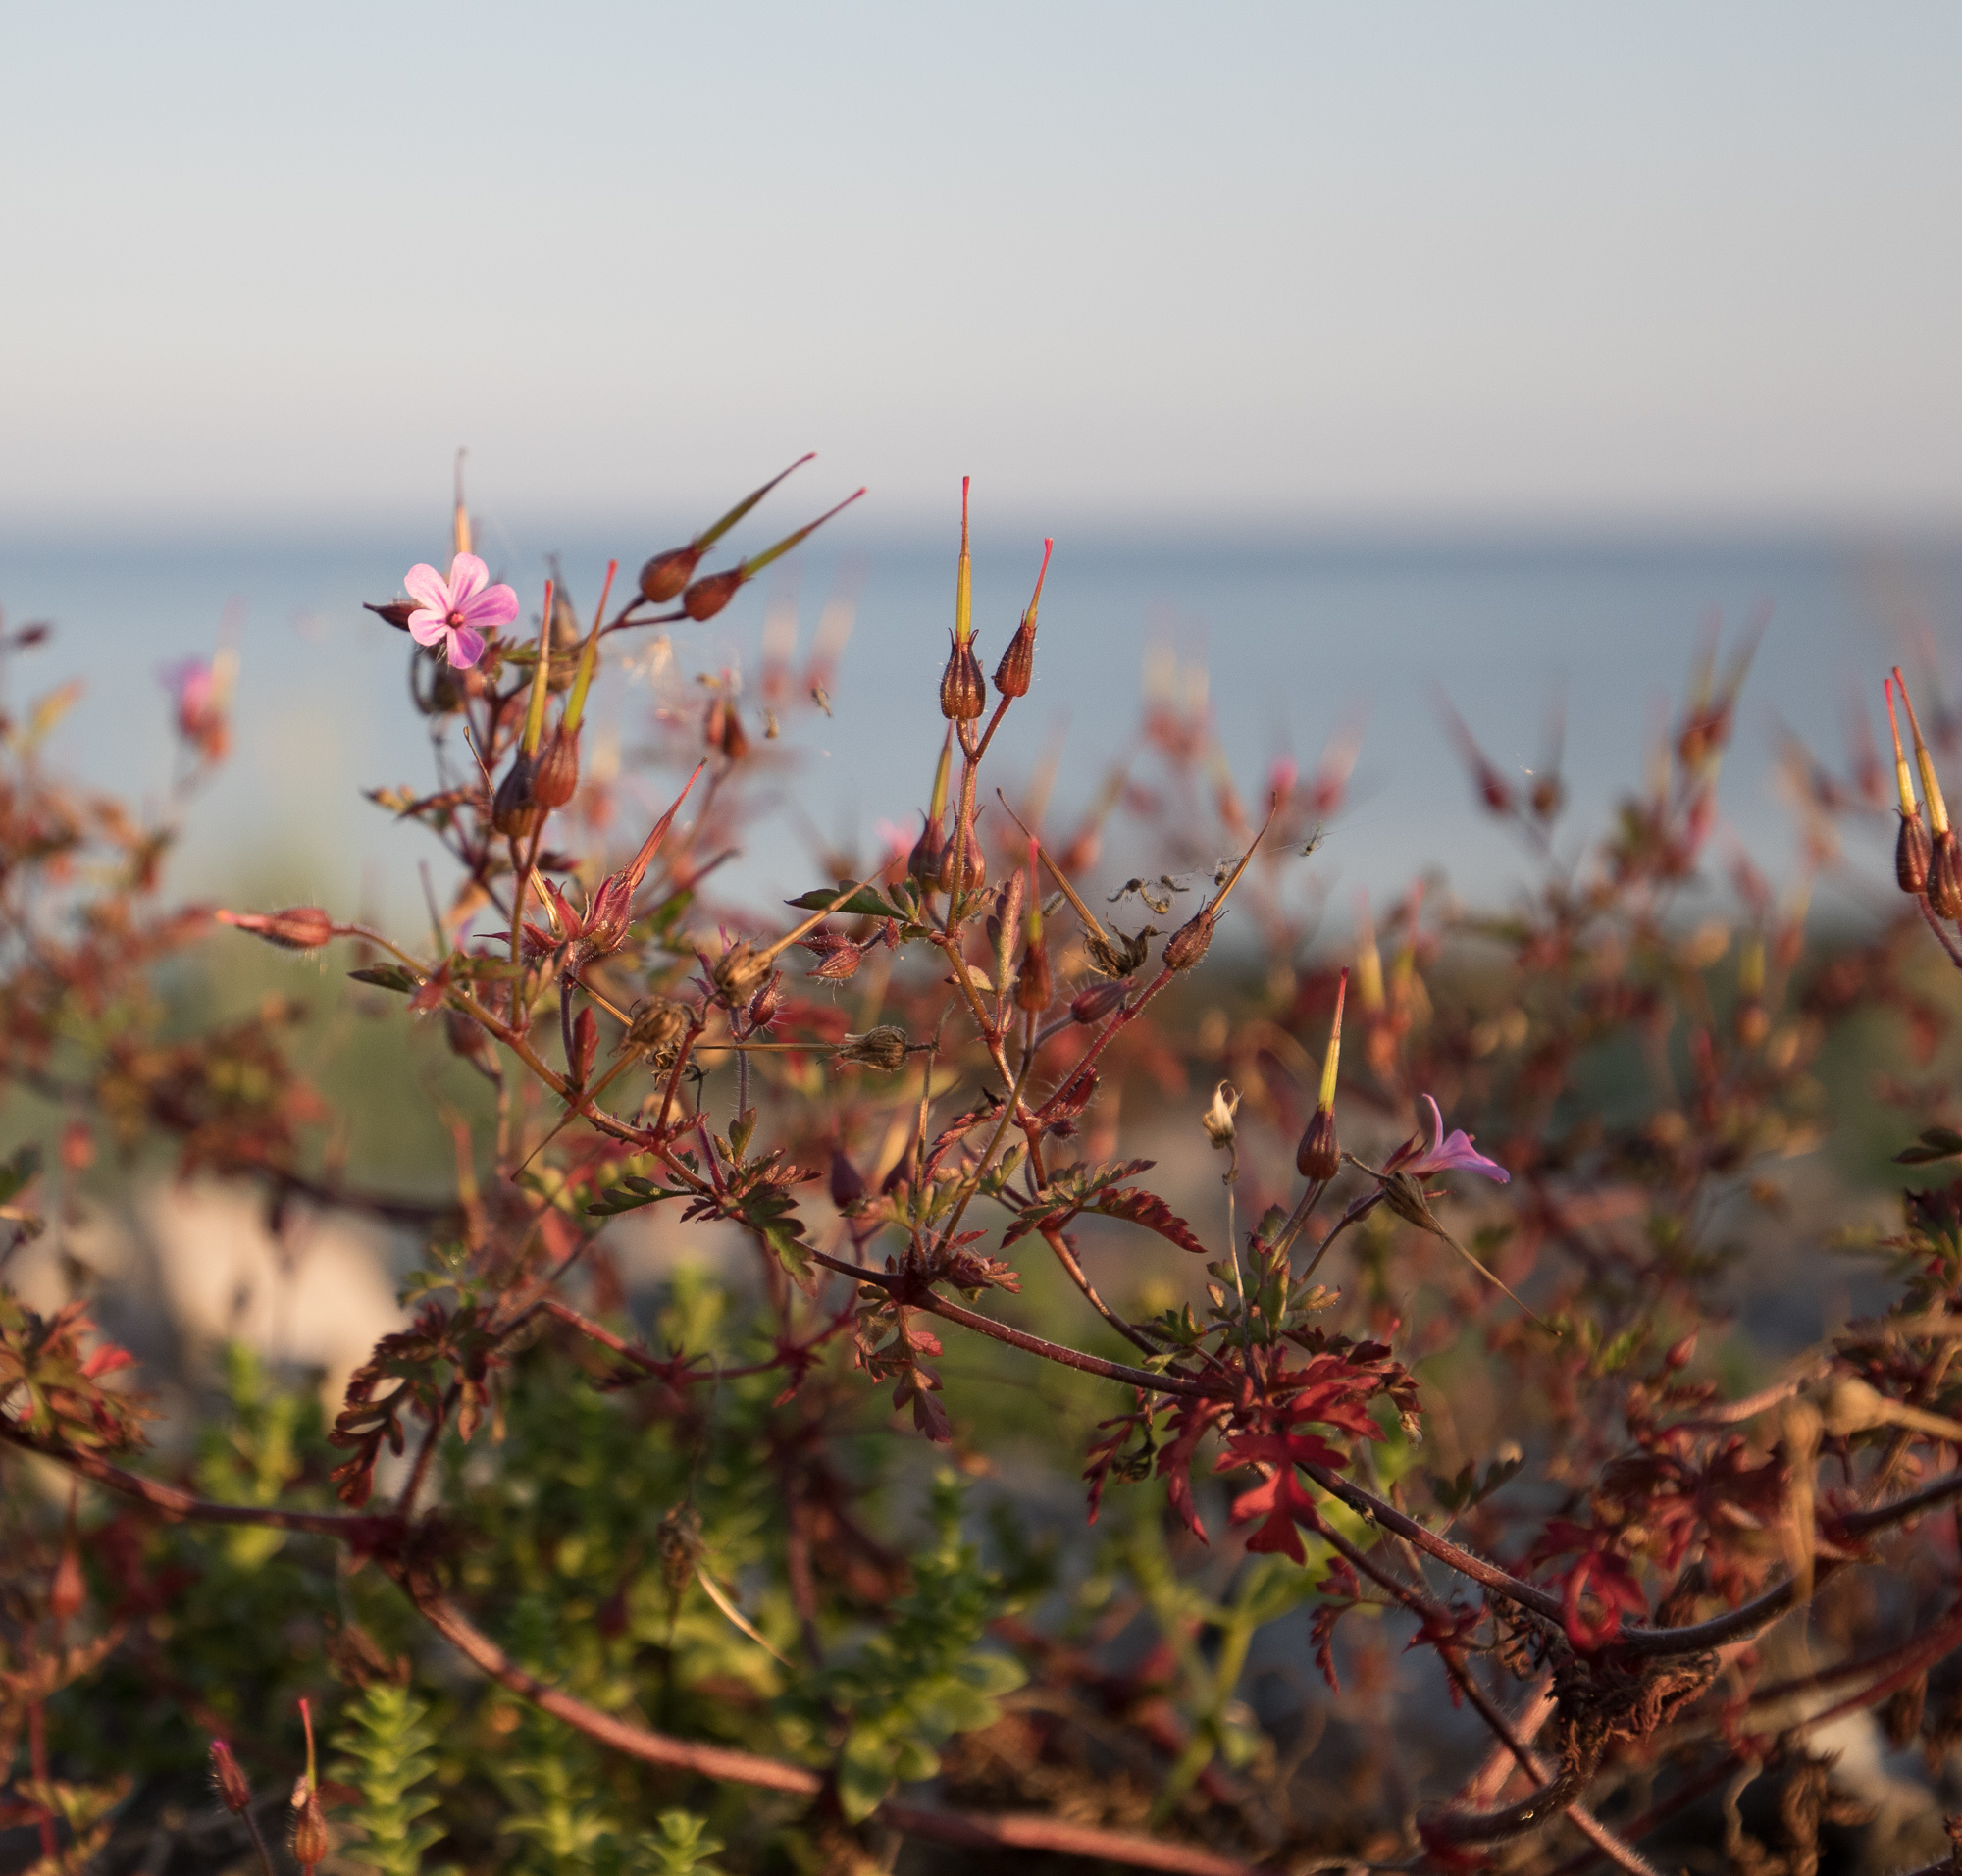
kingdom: Plantae
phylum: Tracheophyta
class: Magnoliopsida
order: Geraniales
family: Geraniaceae
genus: Geranium
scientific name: Geranium robertianum
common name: Herb-robert
